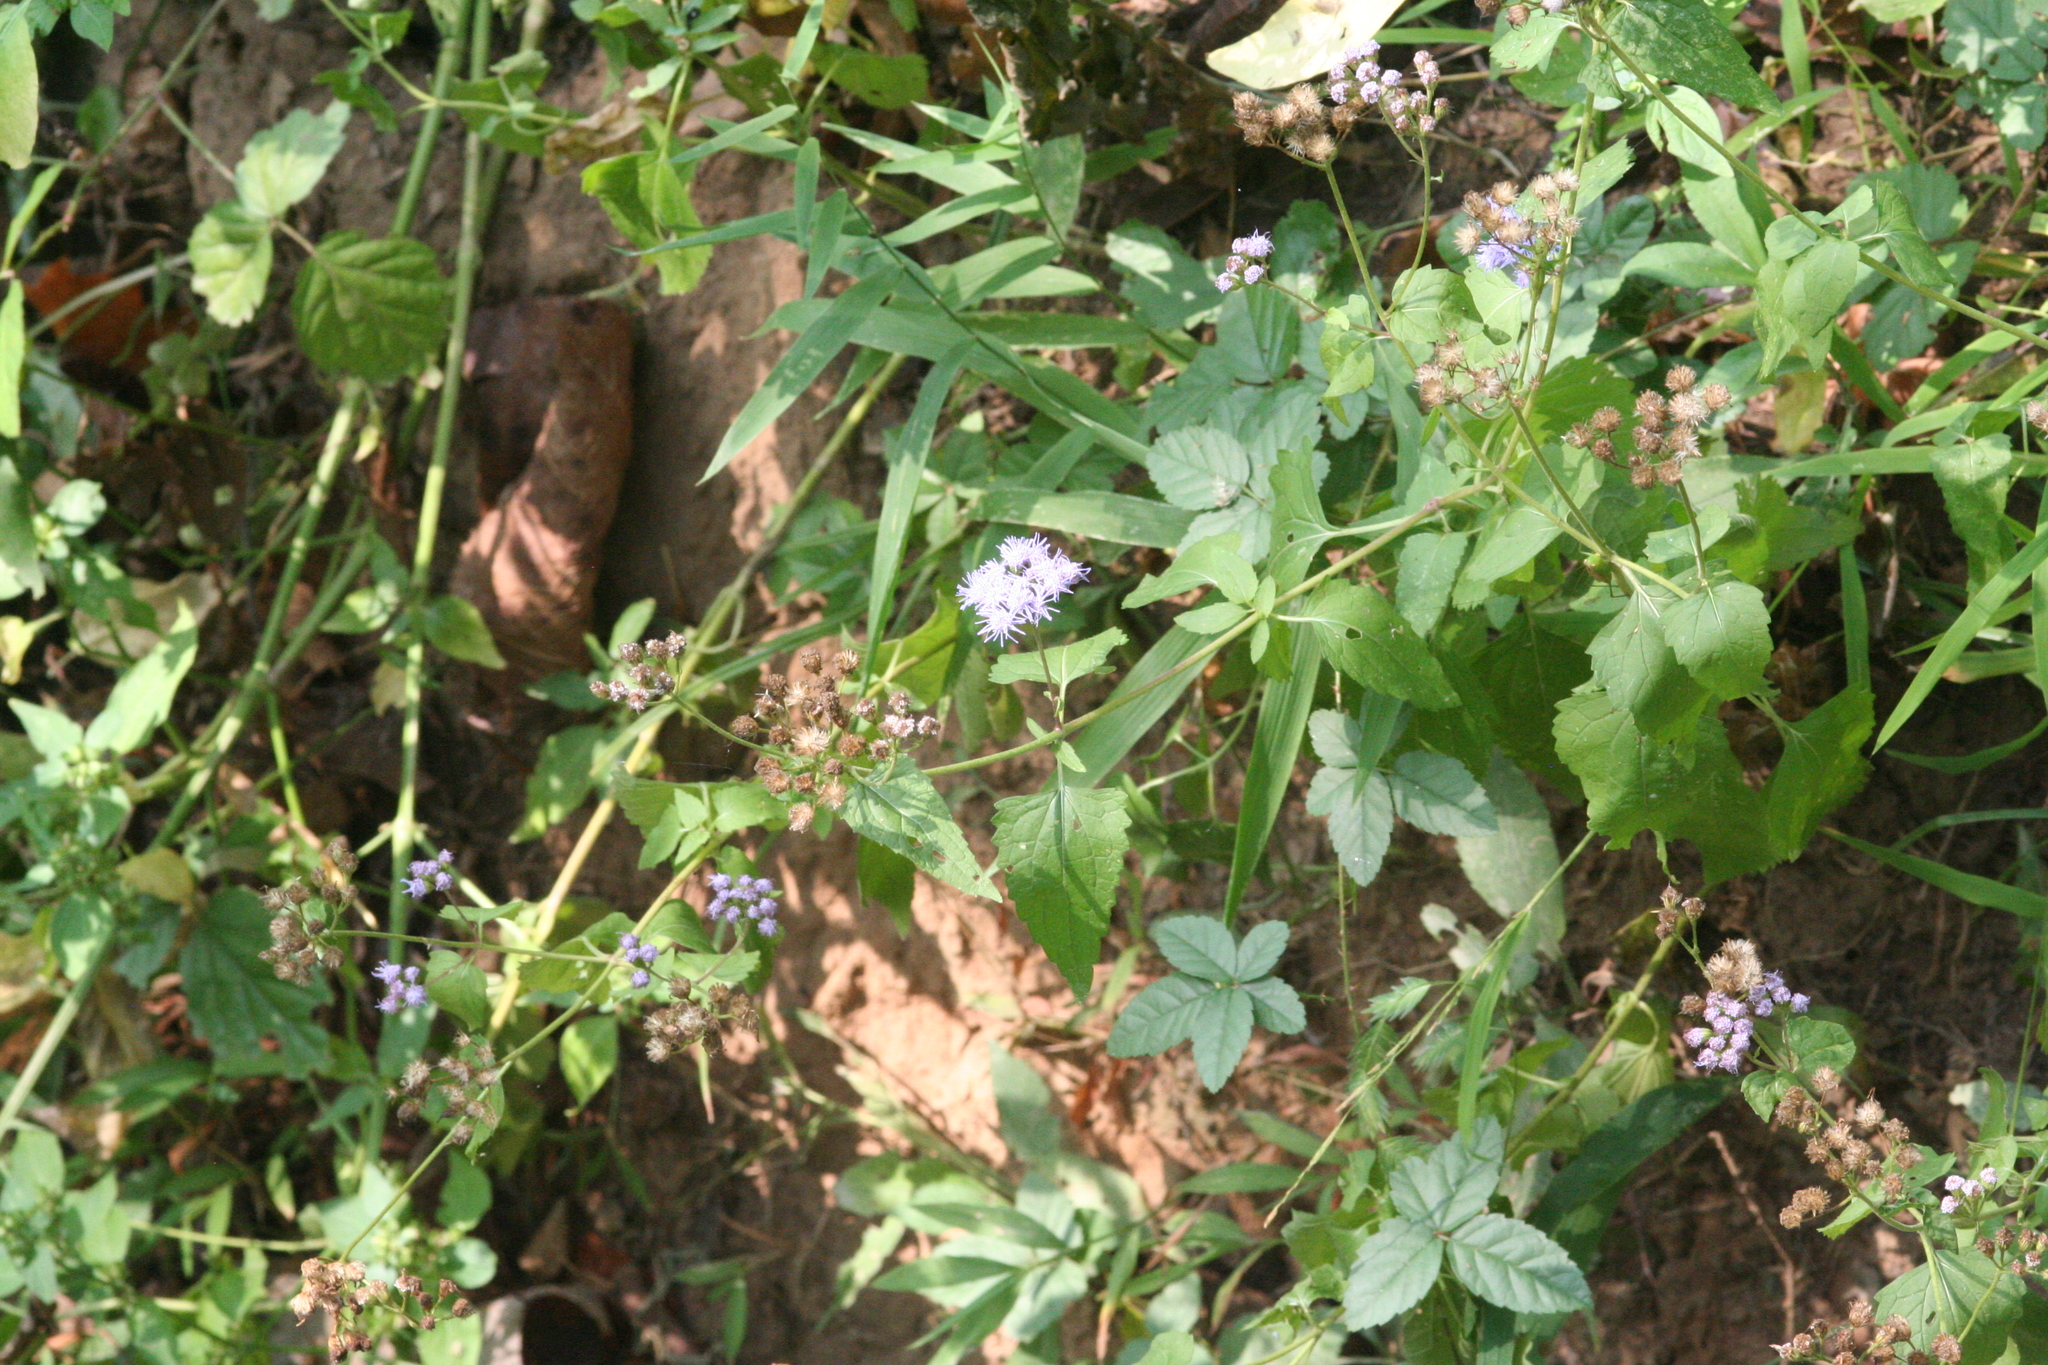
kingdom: Plantae
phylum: Tracheophyta
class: Magnoliopsida
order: Asterales
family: Asteraceae
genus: Conoclinium
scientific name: Conoclinium coelestinum
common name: Blue mistflower
